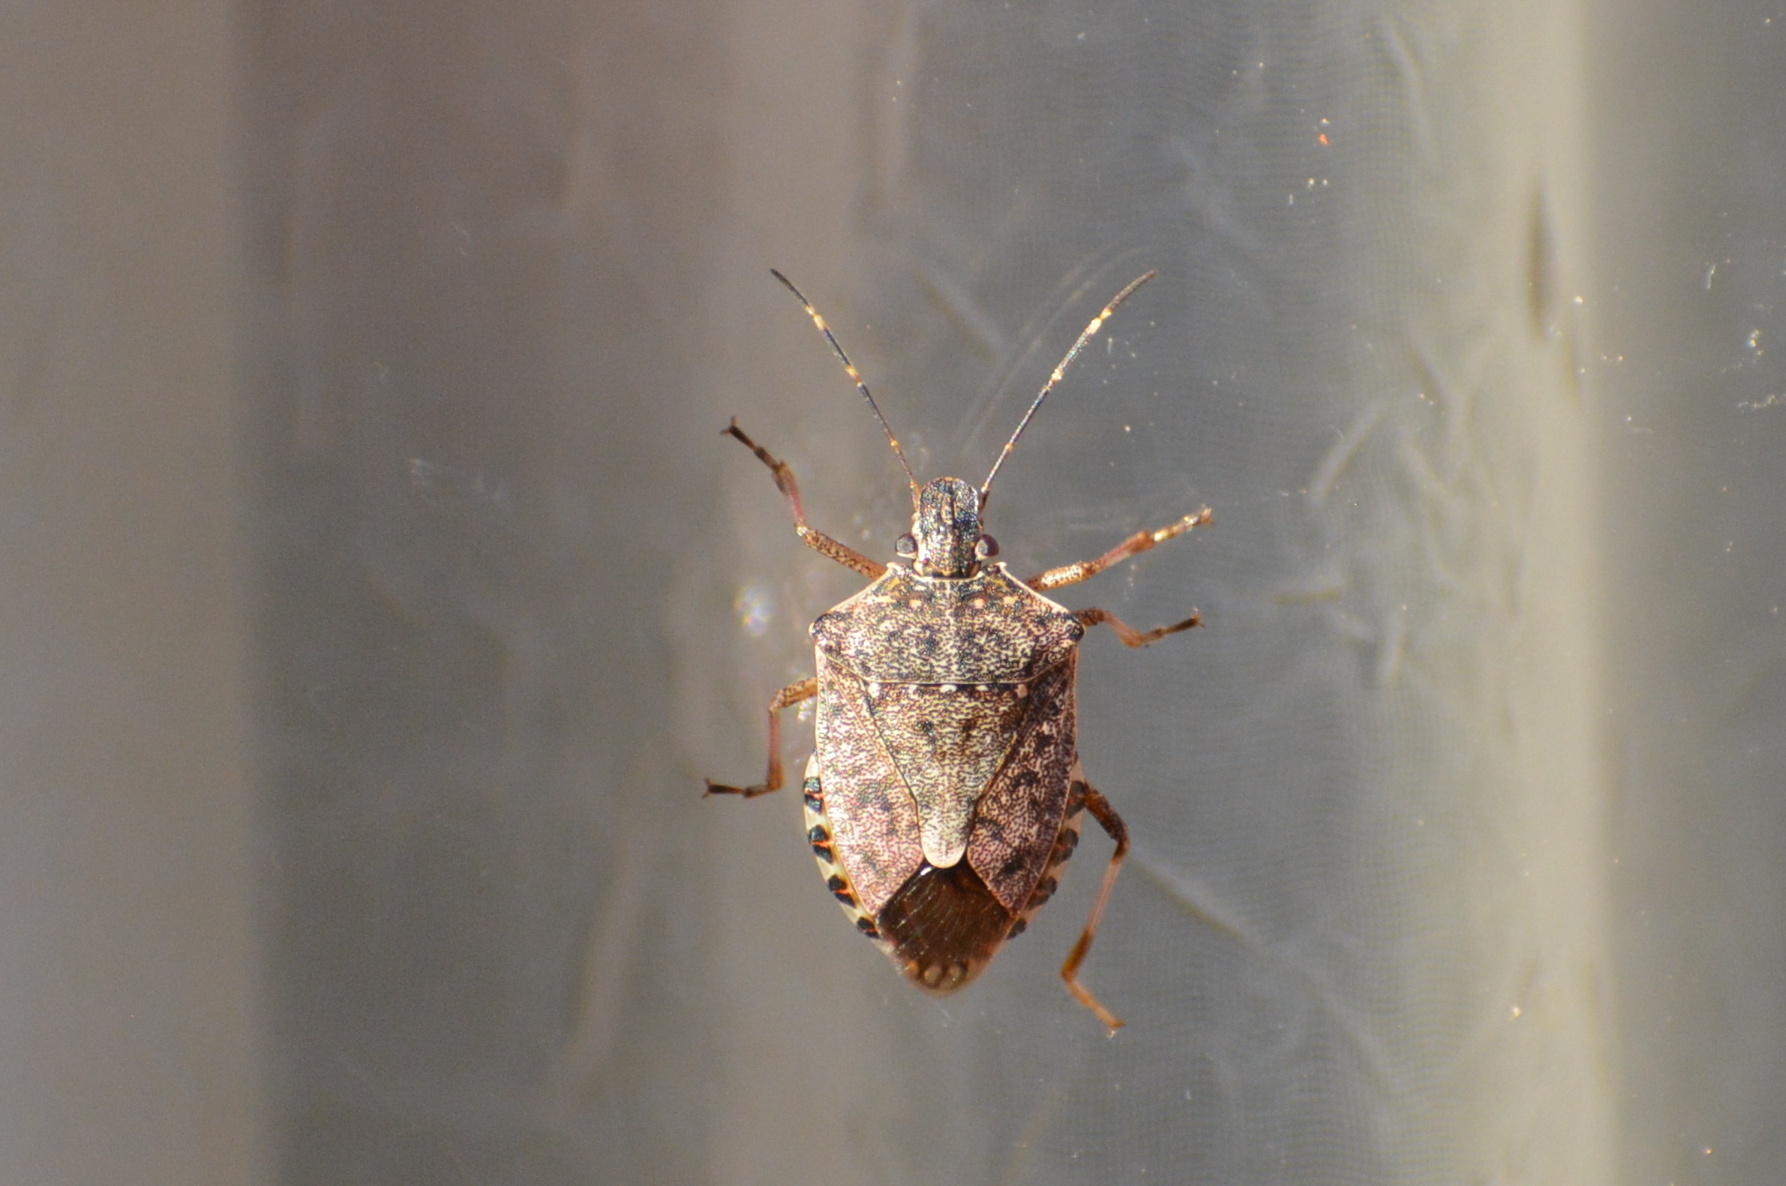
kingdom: Animalia
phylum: Arthropoda
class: Insecta
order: Hemiptera
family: Pentatomidae
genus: Halyomorpha
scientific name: Halyomorpha halys
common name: Brown marmorated stink bug
